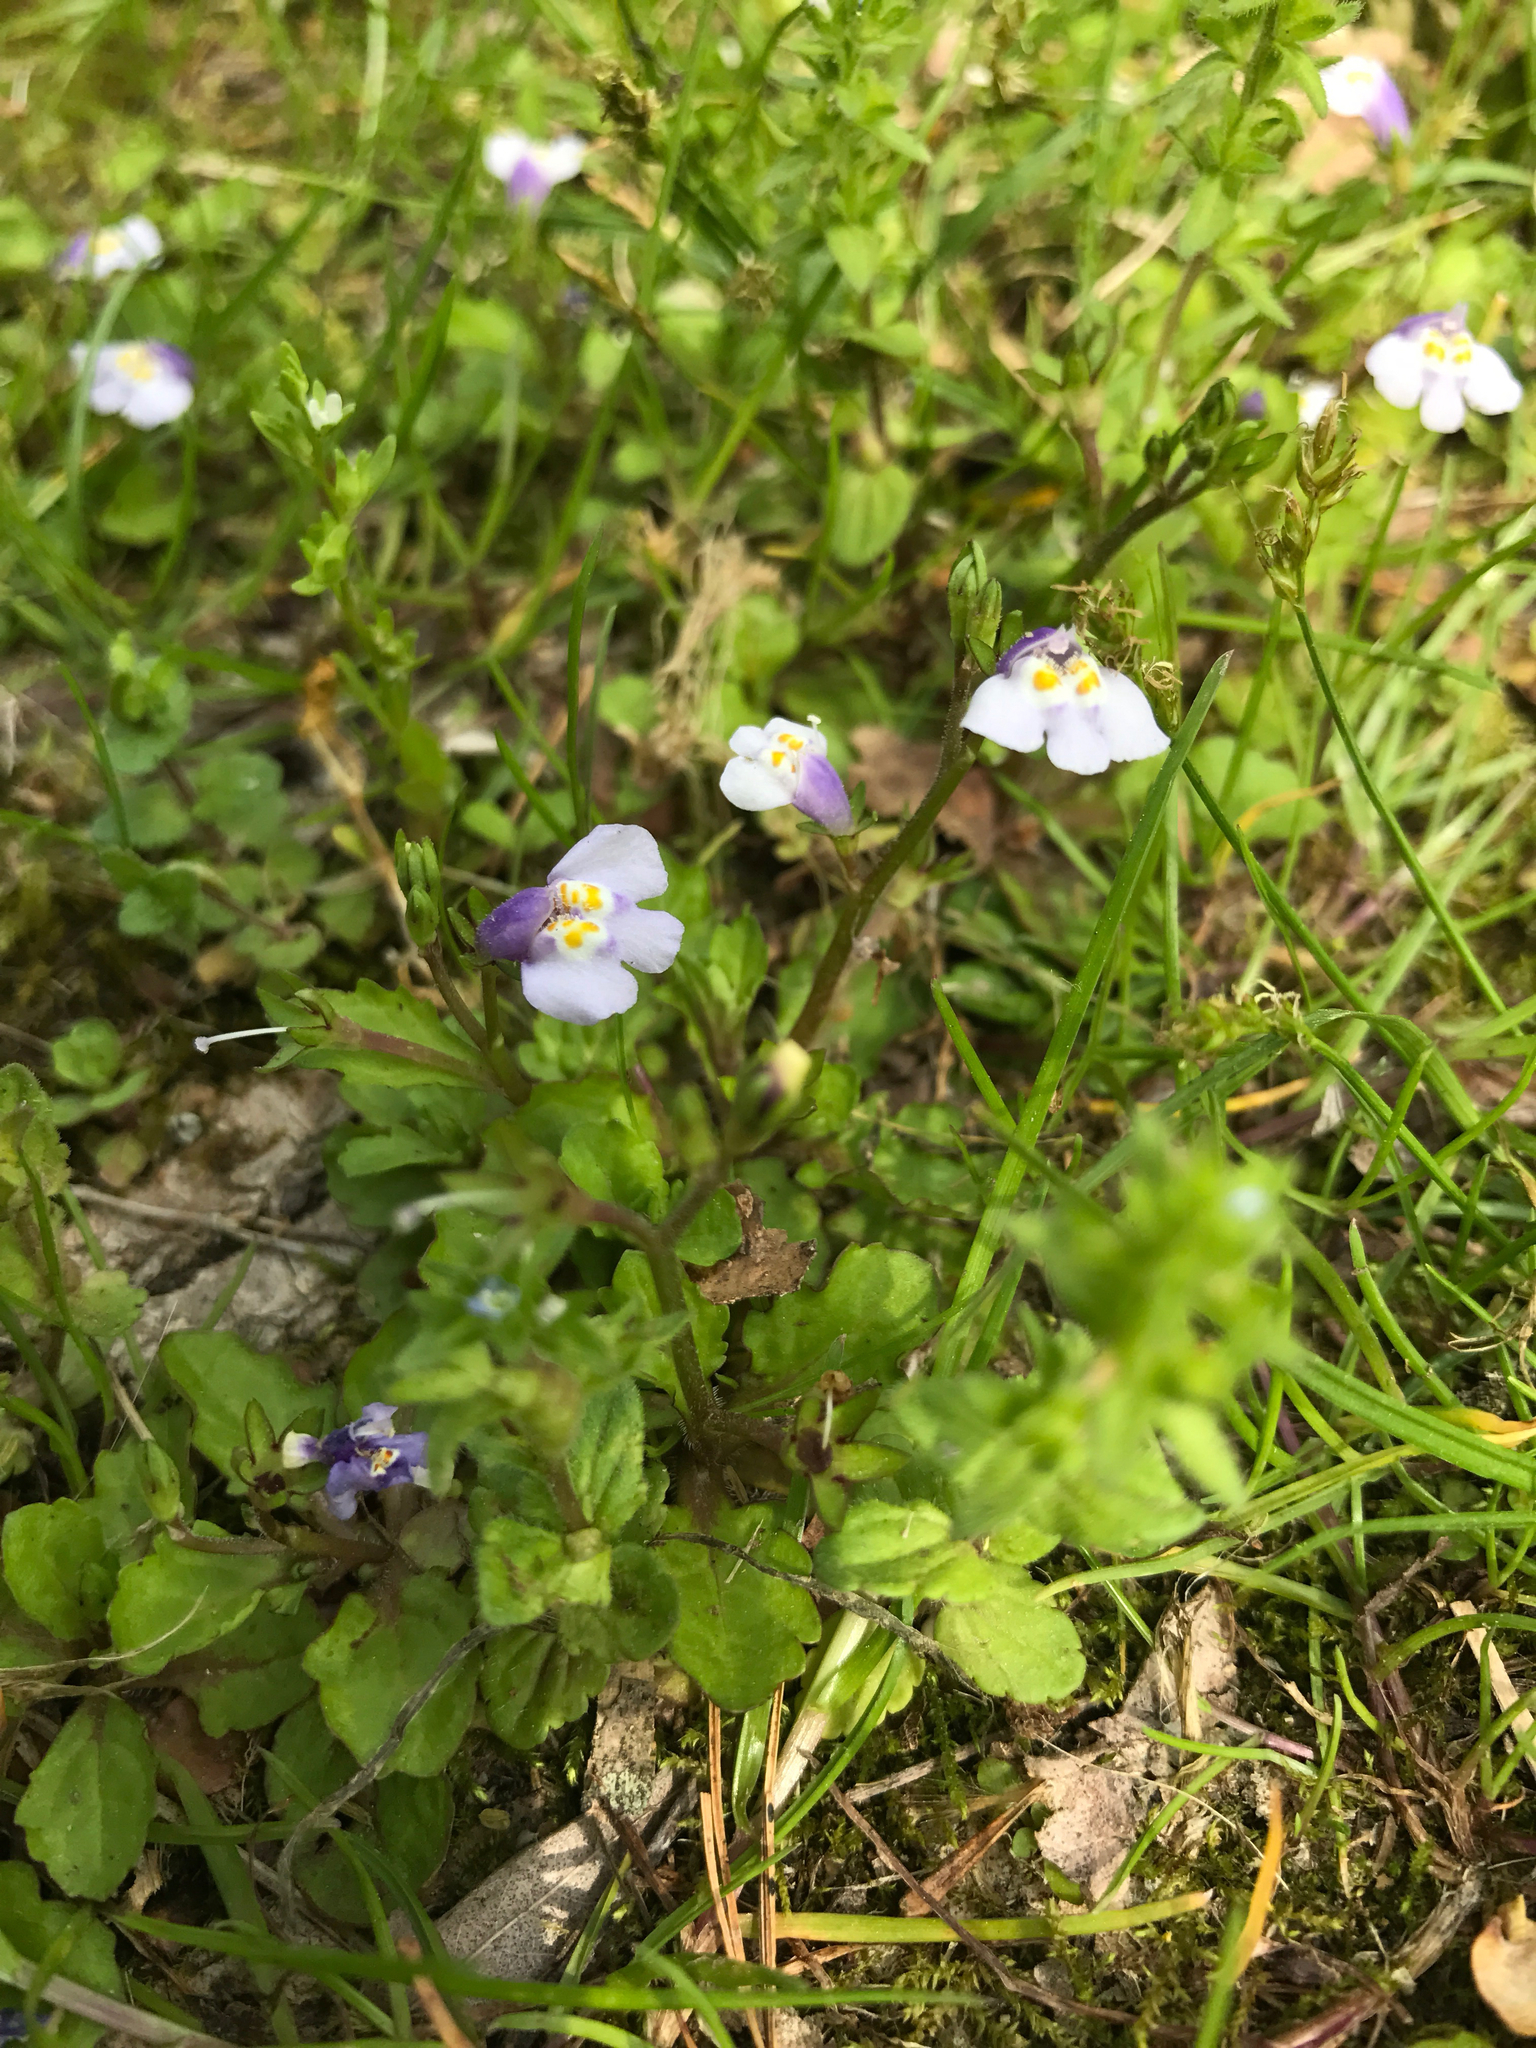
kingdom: Plantae
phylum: Tracheophyta
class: Magnoliopsida
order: Lamiales
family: Mazaceae
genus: Mazus
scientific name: Mazus pumilus
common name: Japanese mazus
